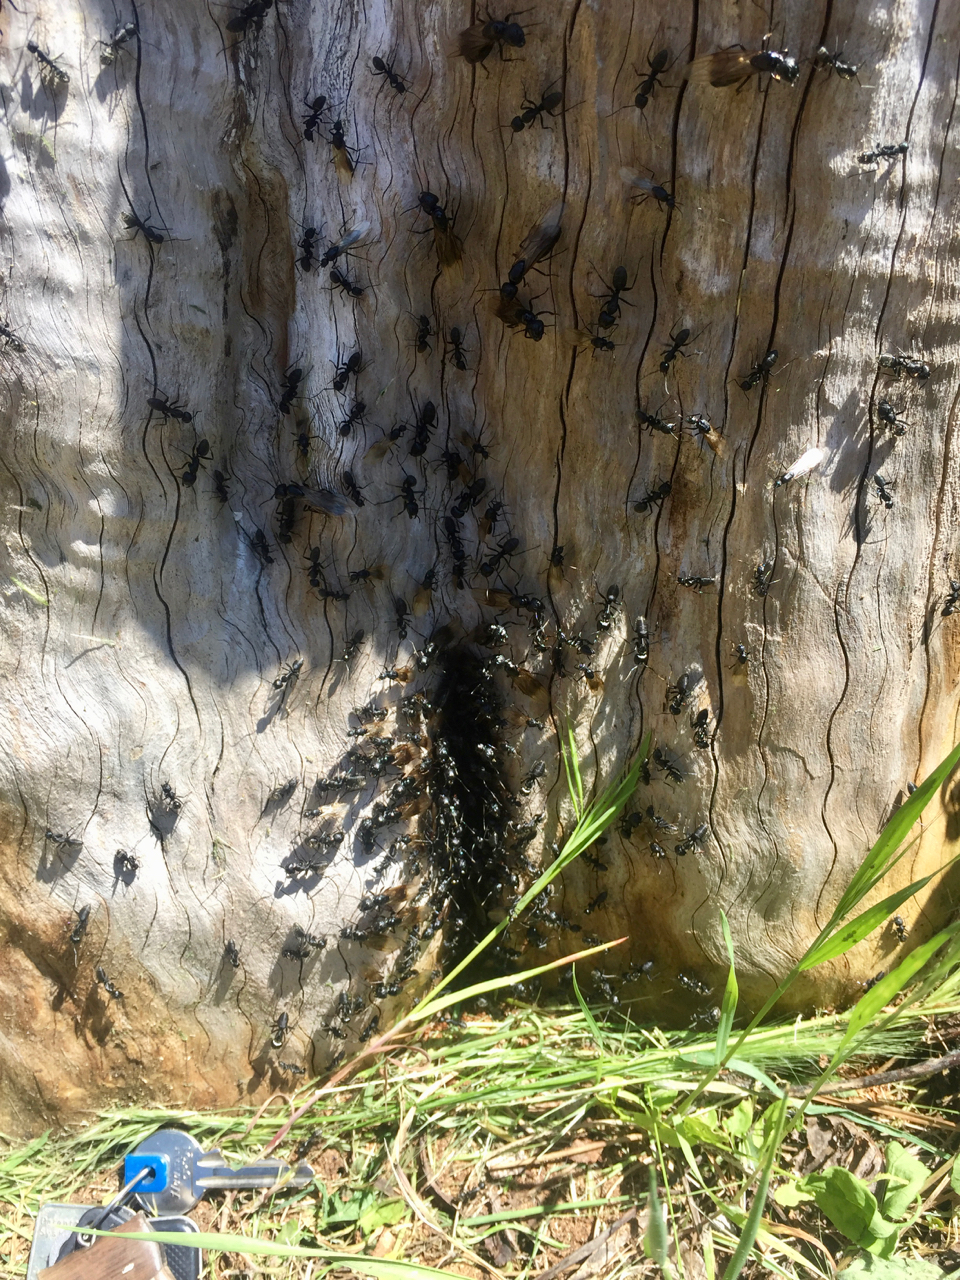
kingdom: Animalia
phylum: Arthropoda
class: Insecta
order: Hymenoptera
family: Formicidae
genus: Camponotus
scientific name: Camponotus vagus
